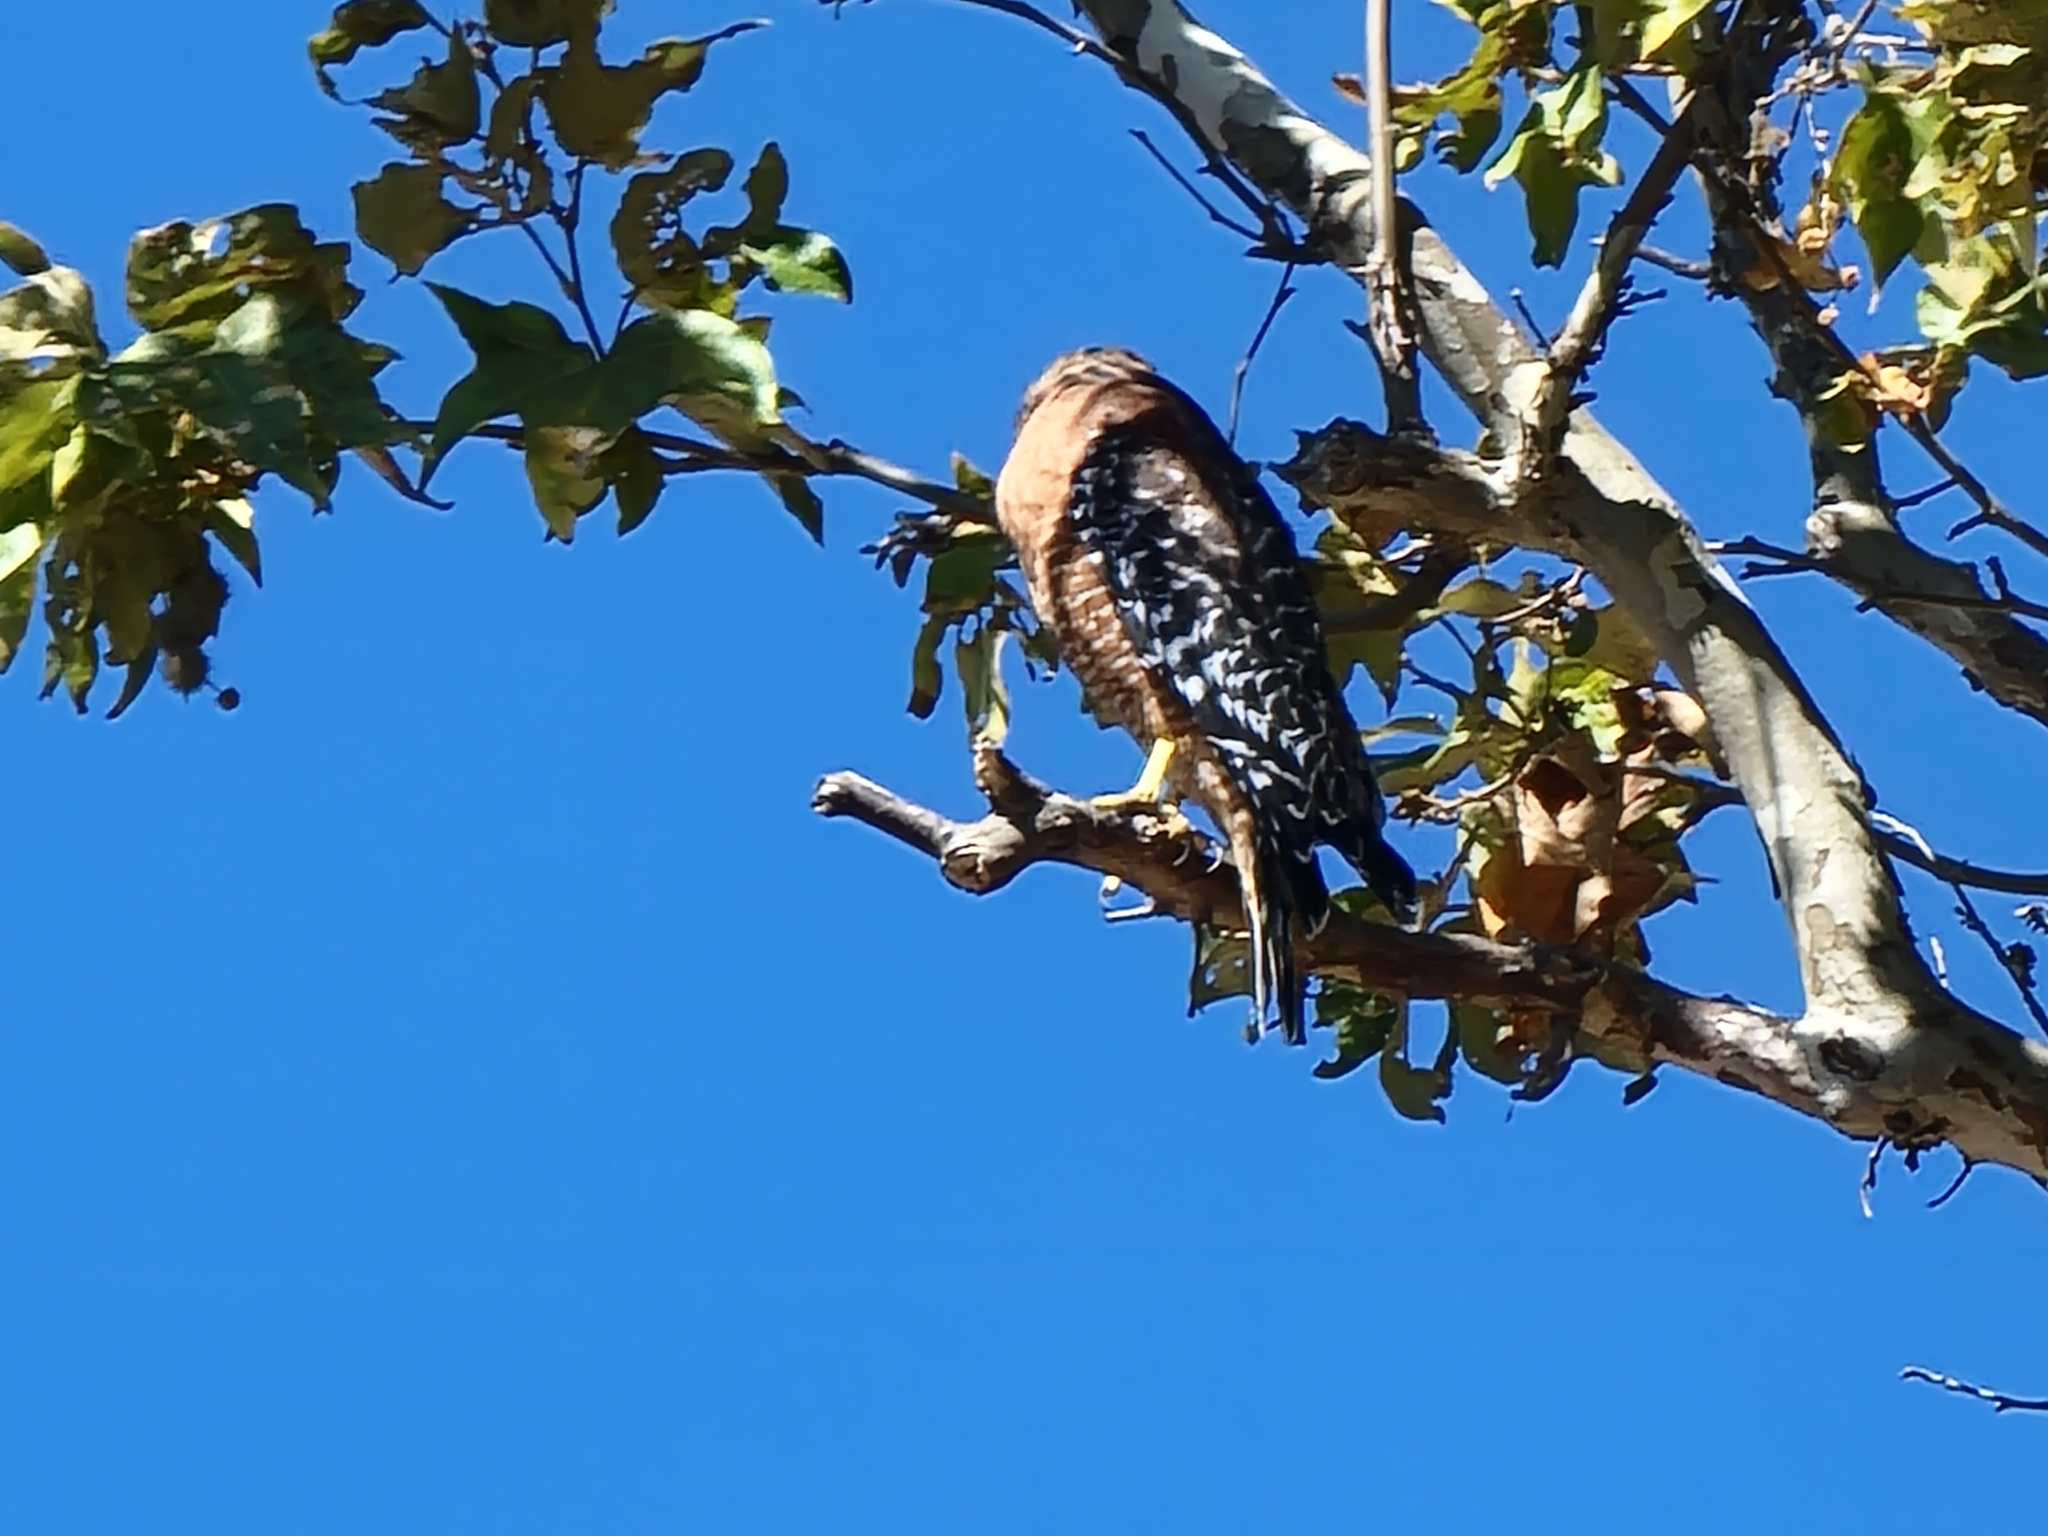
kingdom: Animalia
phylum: Chordata
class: Aves
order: Accipitriformes
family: Accipitridae
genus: Buteo
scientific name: Buteo lineatus
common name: Red-shouldered hawk
